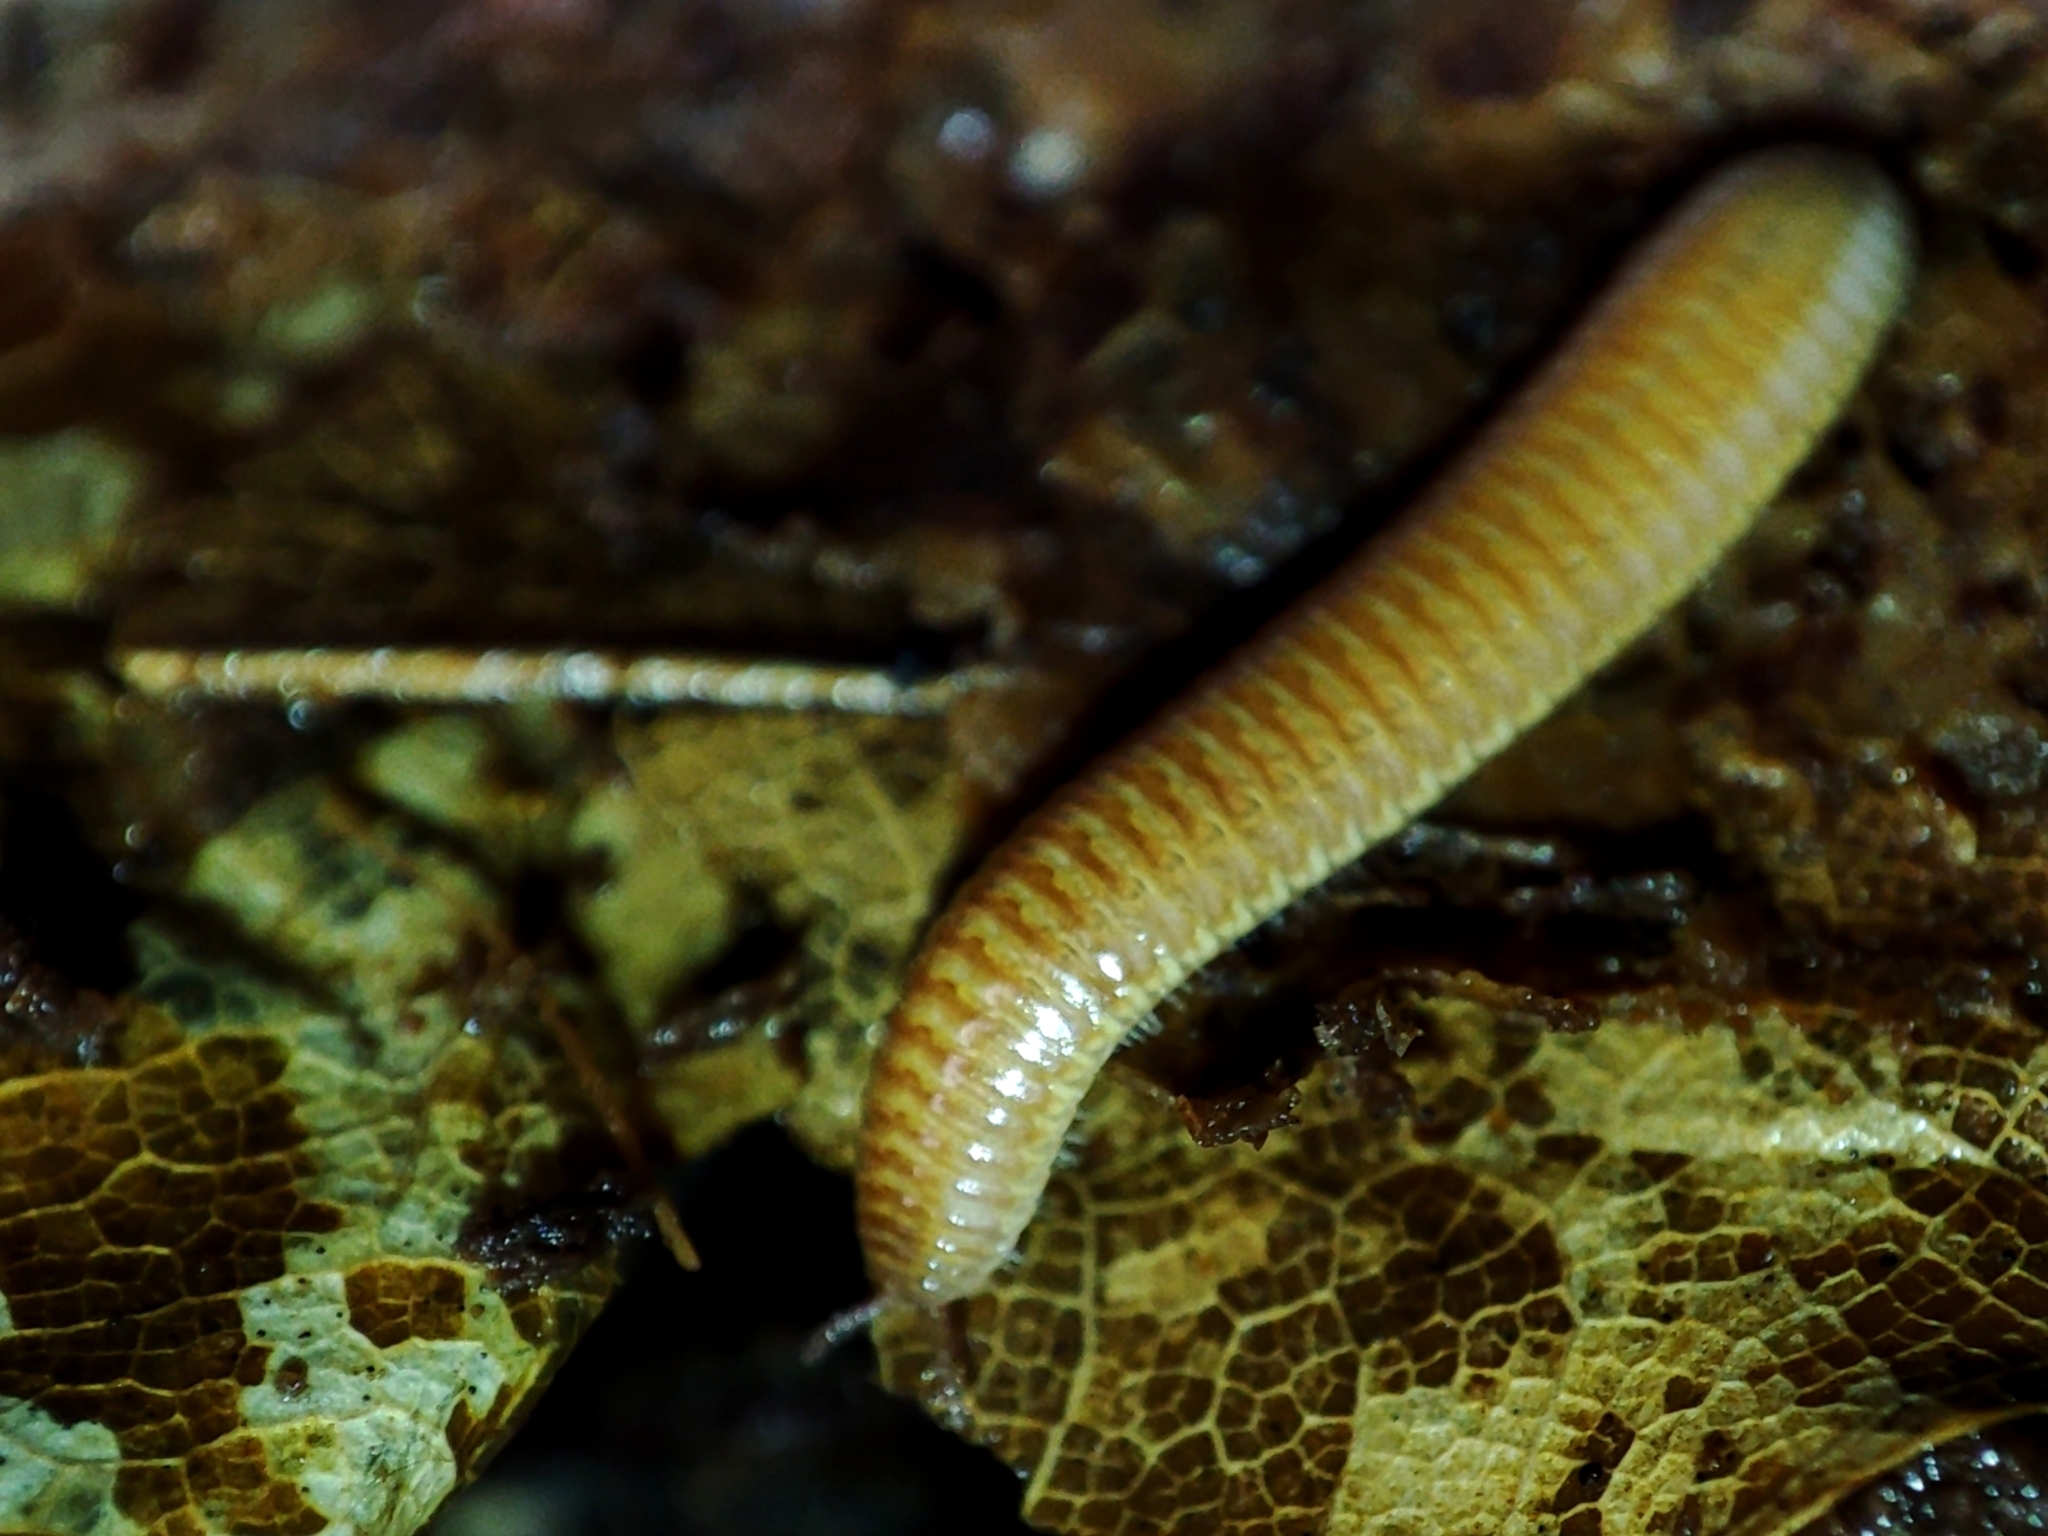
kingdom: Animalia
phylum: Arthropoda
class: Diplopoda
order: Polyzoniida
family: Polyzoniidae
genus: Polyzonium
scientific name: Polyzonium germanicum
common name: Boring millipede
